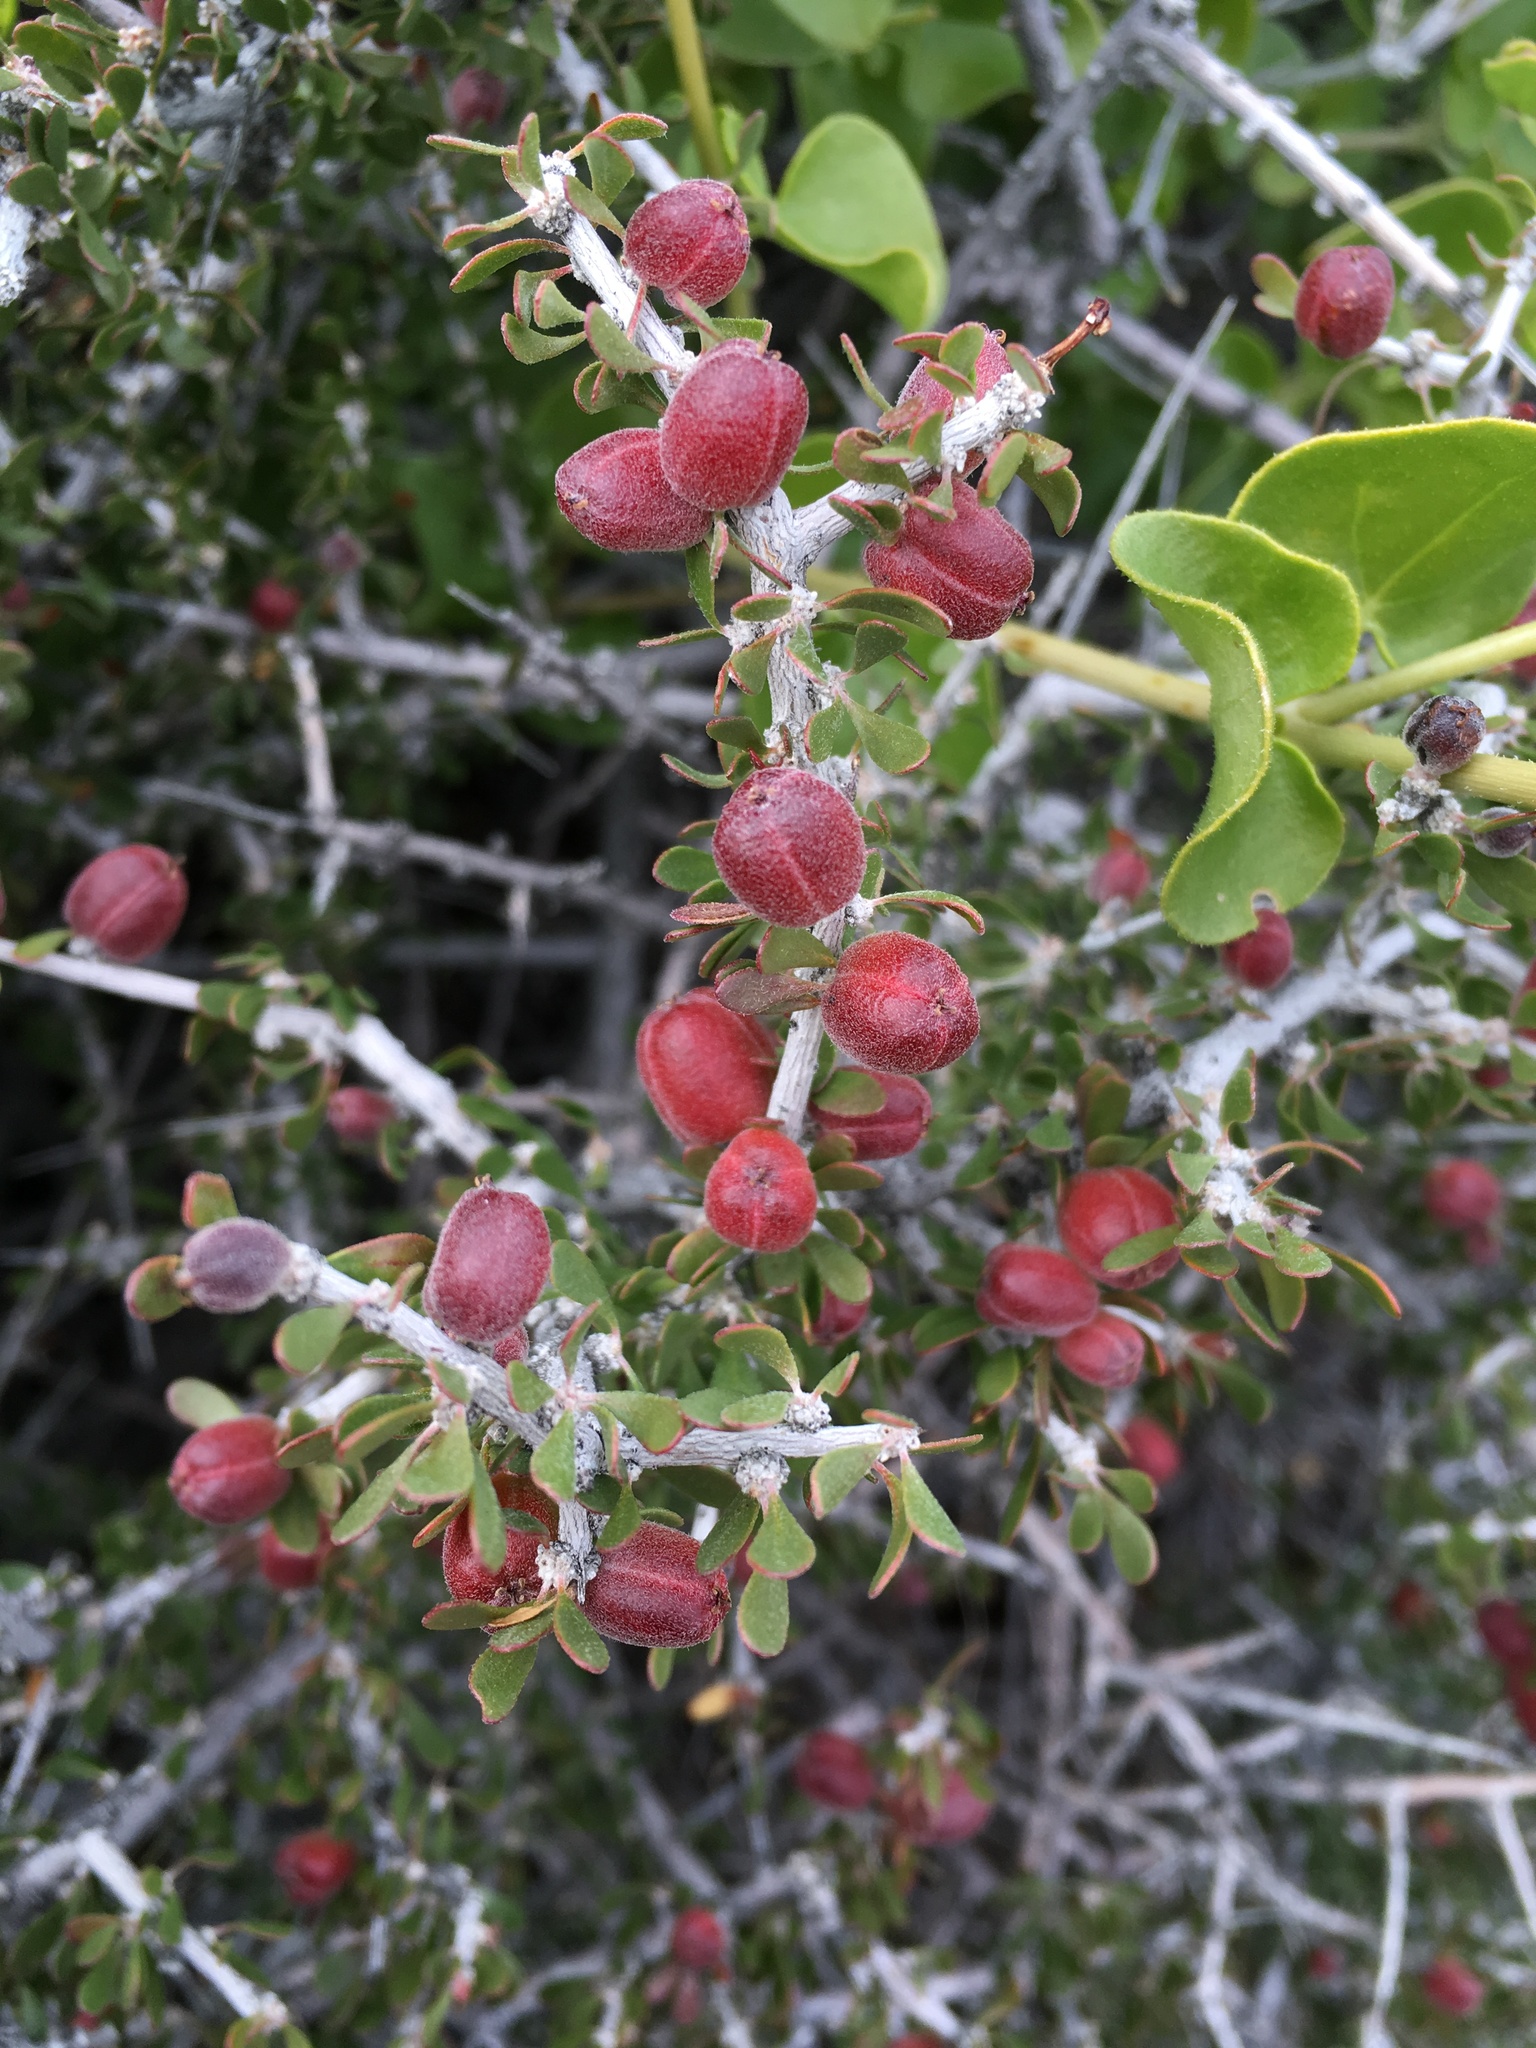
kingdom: Plantae
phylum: Tracheophyta
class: Magnoliopsida
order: Malpighiales
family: Picrodendraceae
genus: Tetracoccus
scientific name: Tetracoccus hallii
